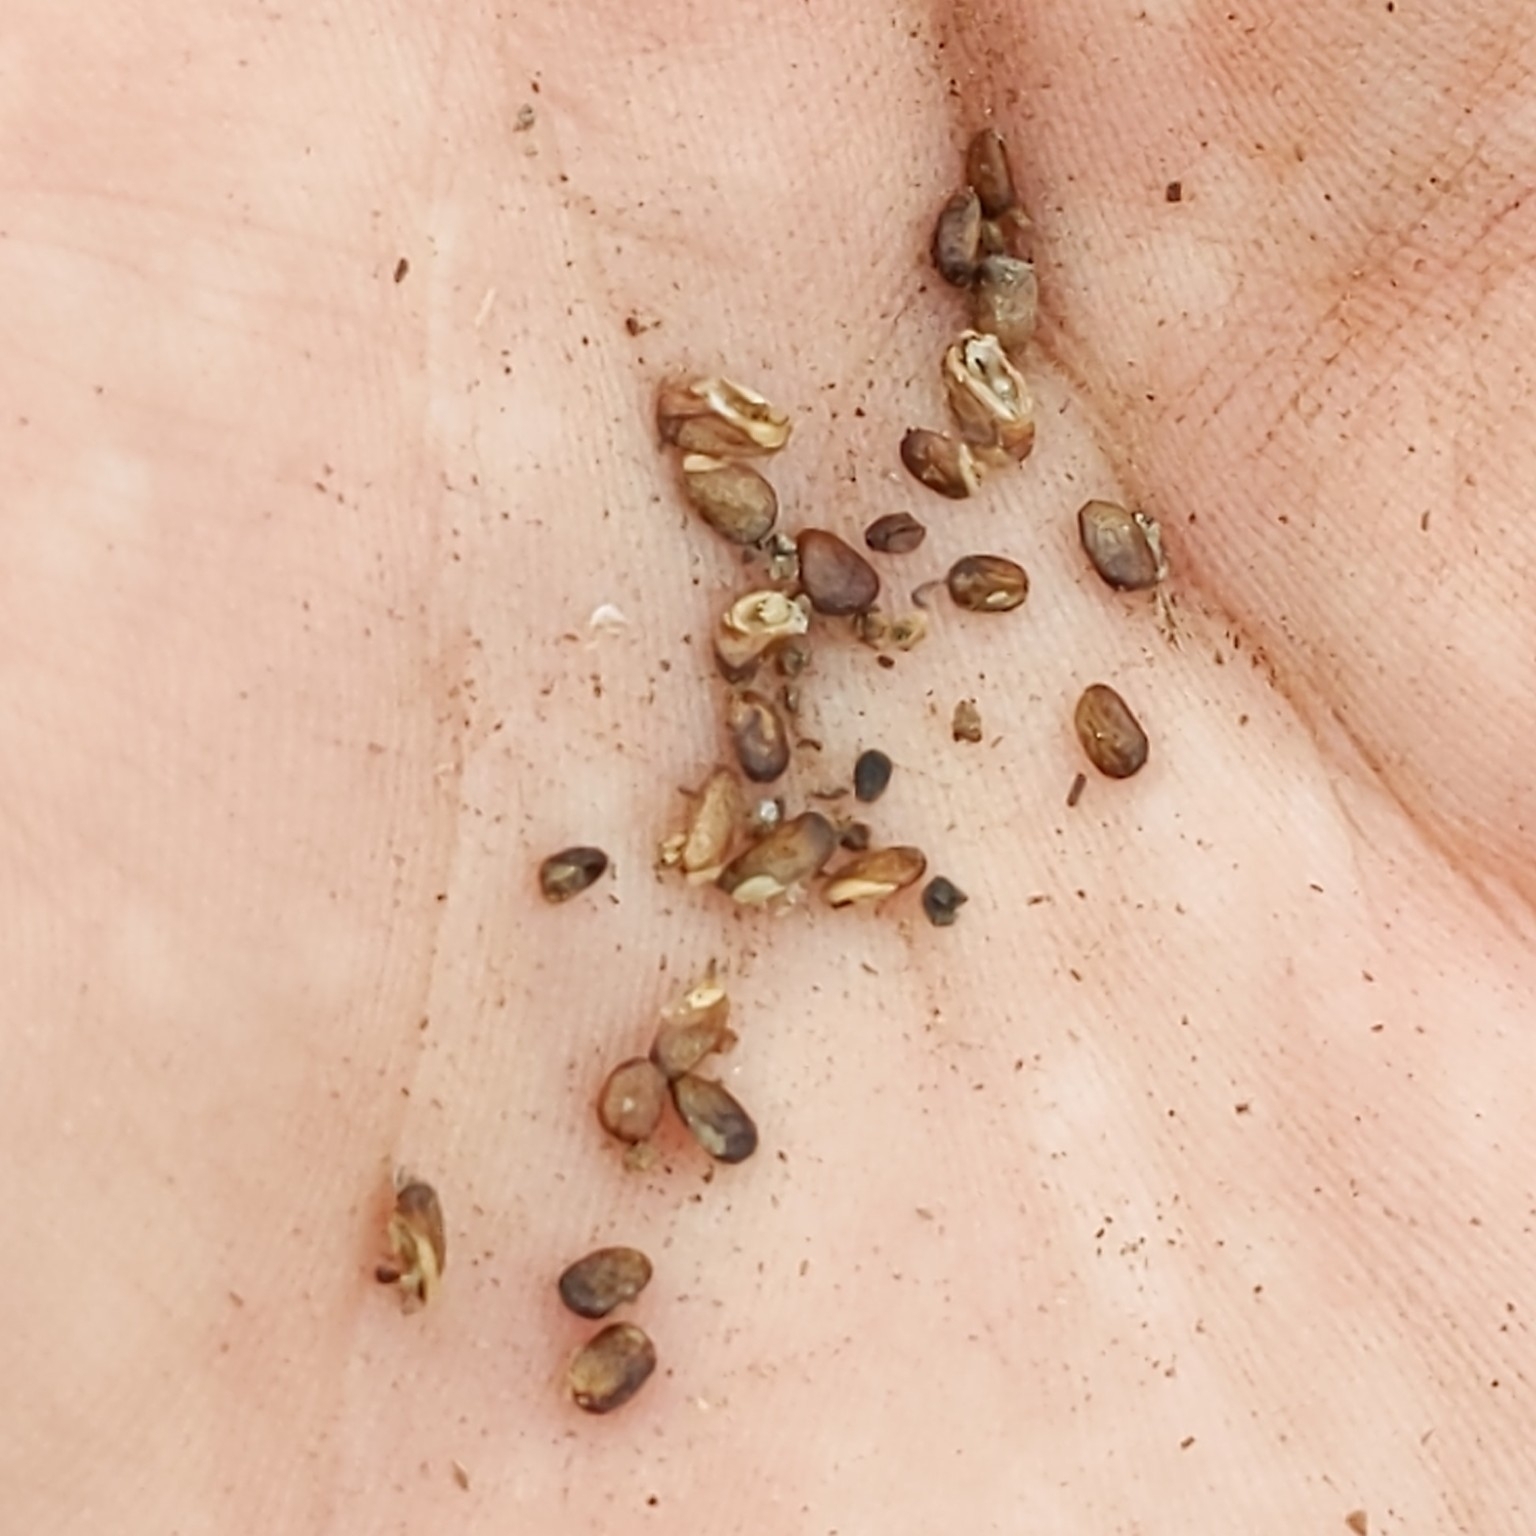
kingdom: Plantae
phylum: Tracheophyta
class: Magnoliopsida
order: Lamiales
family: Lamiaceae
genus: Salvia
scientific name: Salvia apiana
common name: White sage
